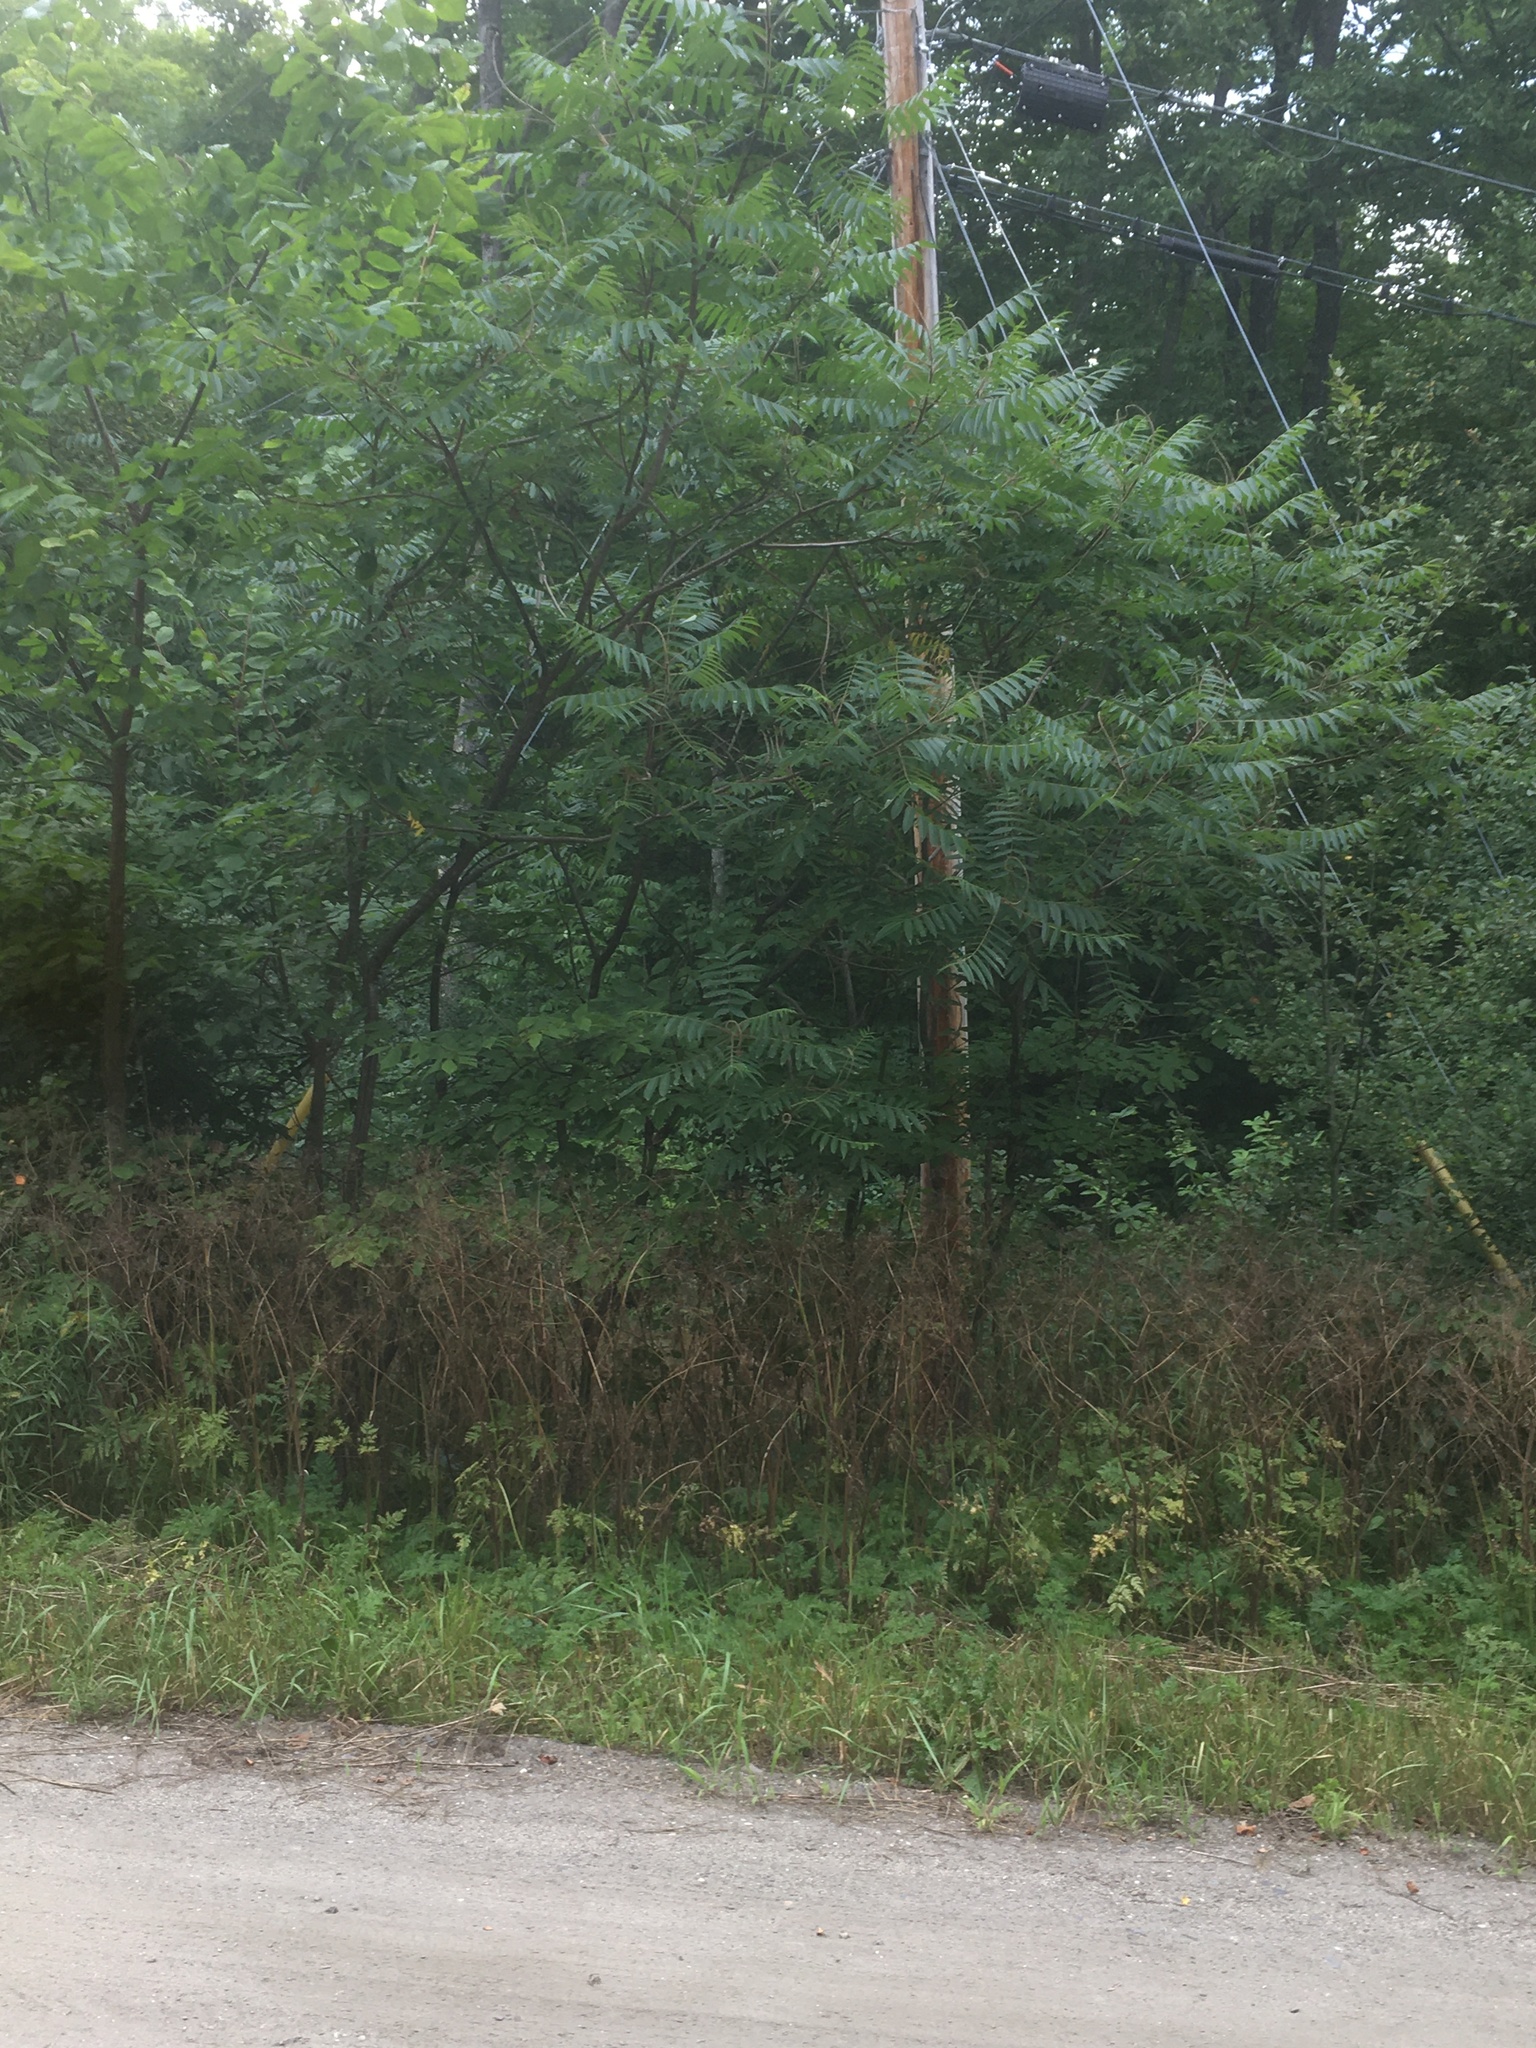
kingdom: Plantae
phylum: Tracheophyta
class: Magnoliopsida
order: Sapindales
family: Anacardiaceae
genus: Rhus
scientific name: Rhus typhina
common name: Staghorn sumac
